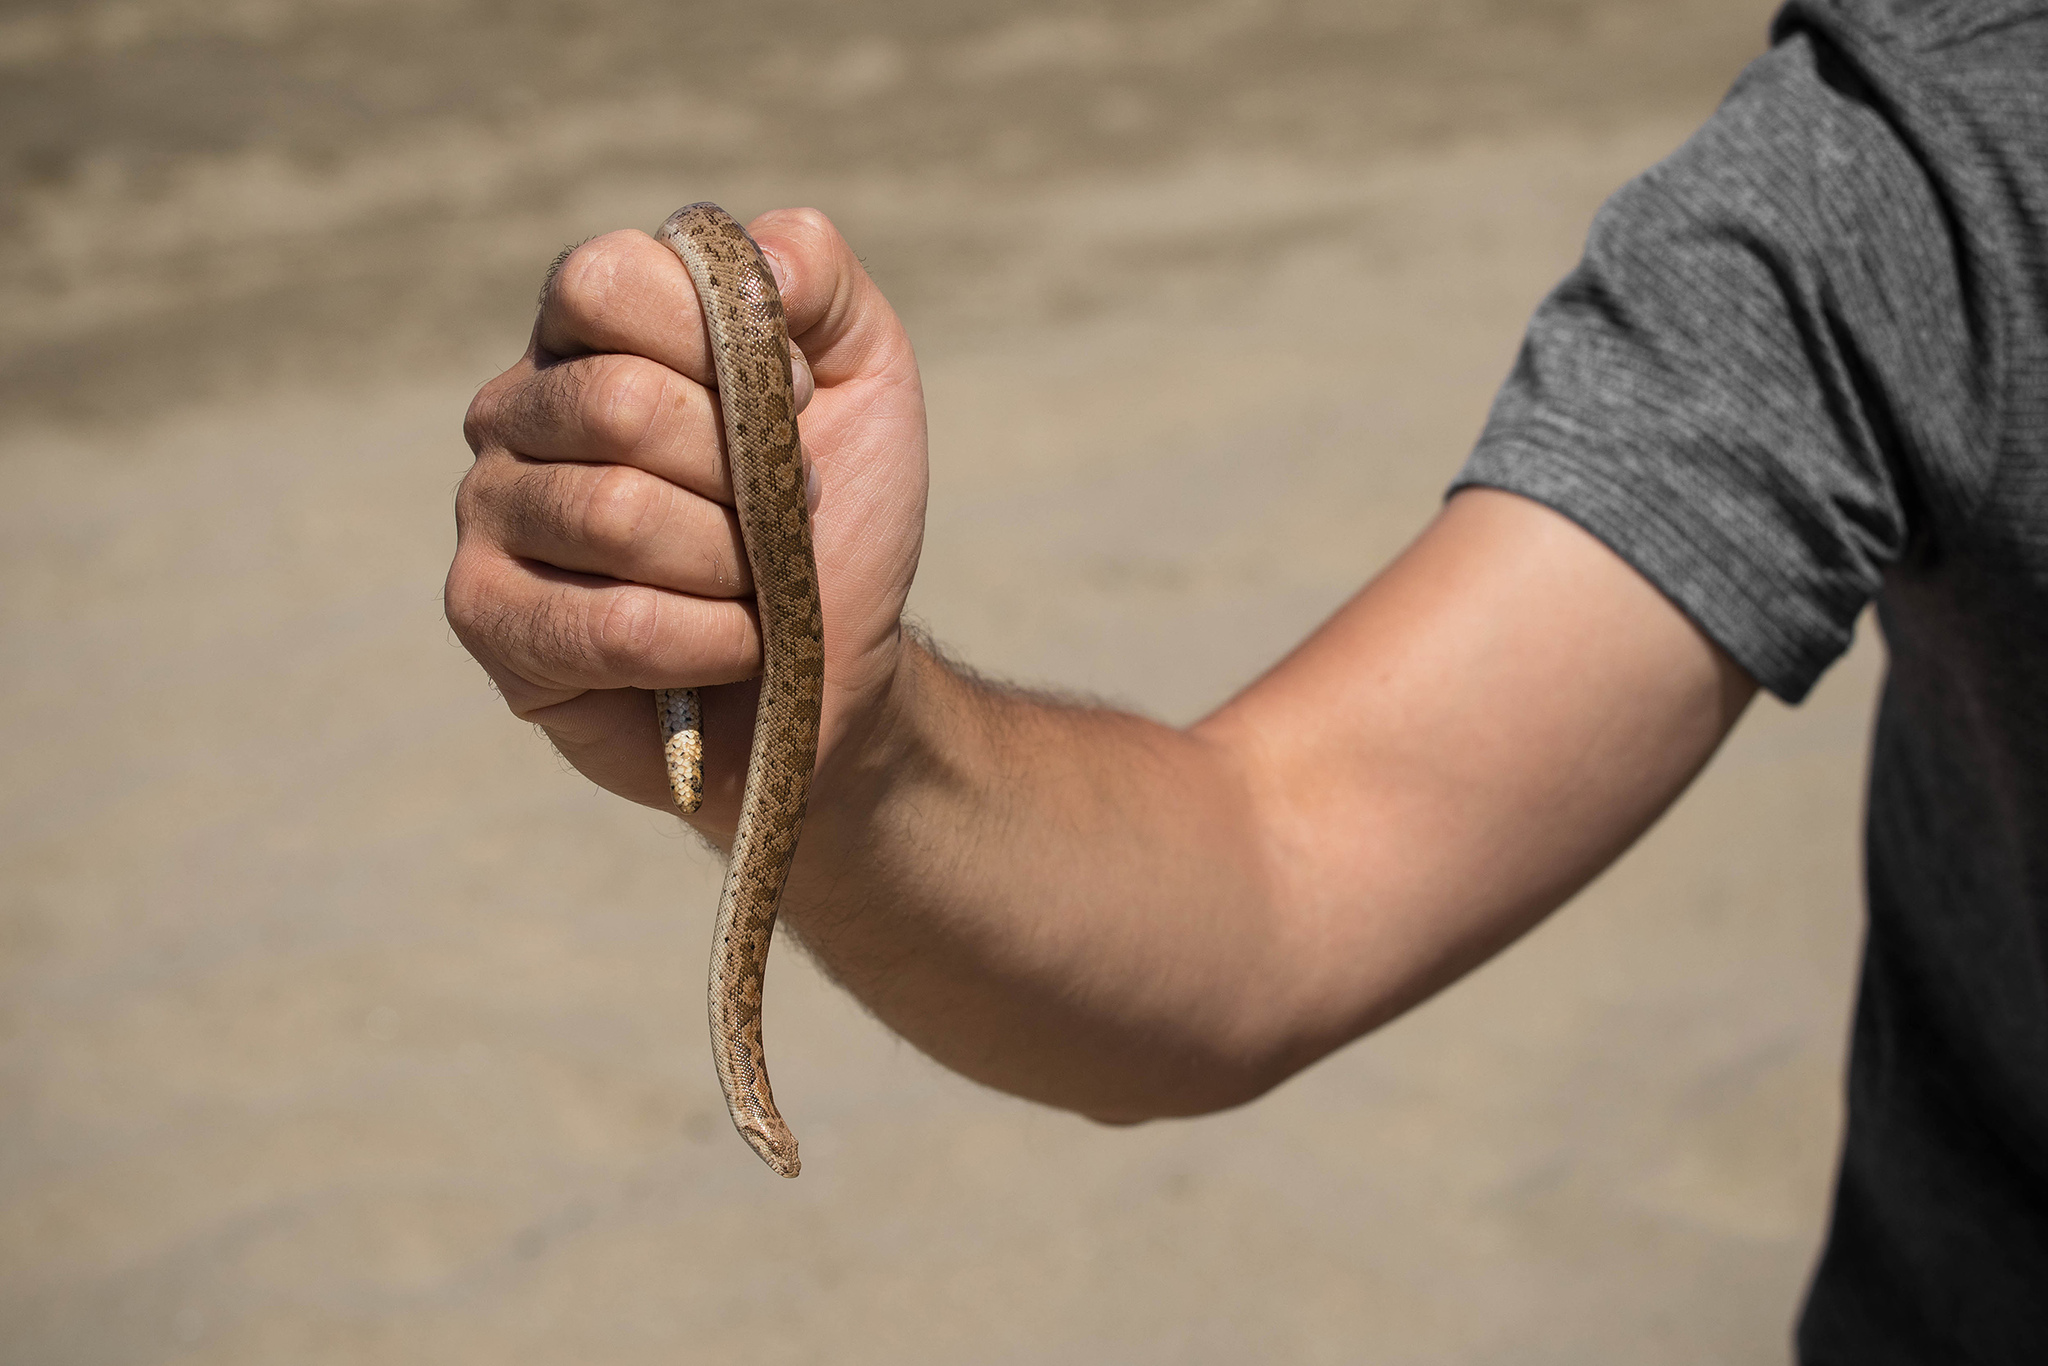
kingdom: Animalia
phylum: Chordata
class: Squamata
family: Boidae
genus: Eryx
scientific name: Eryx miliaris
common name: Desert sand boa
